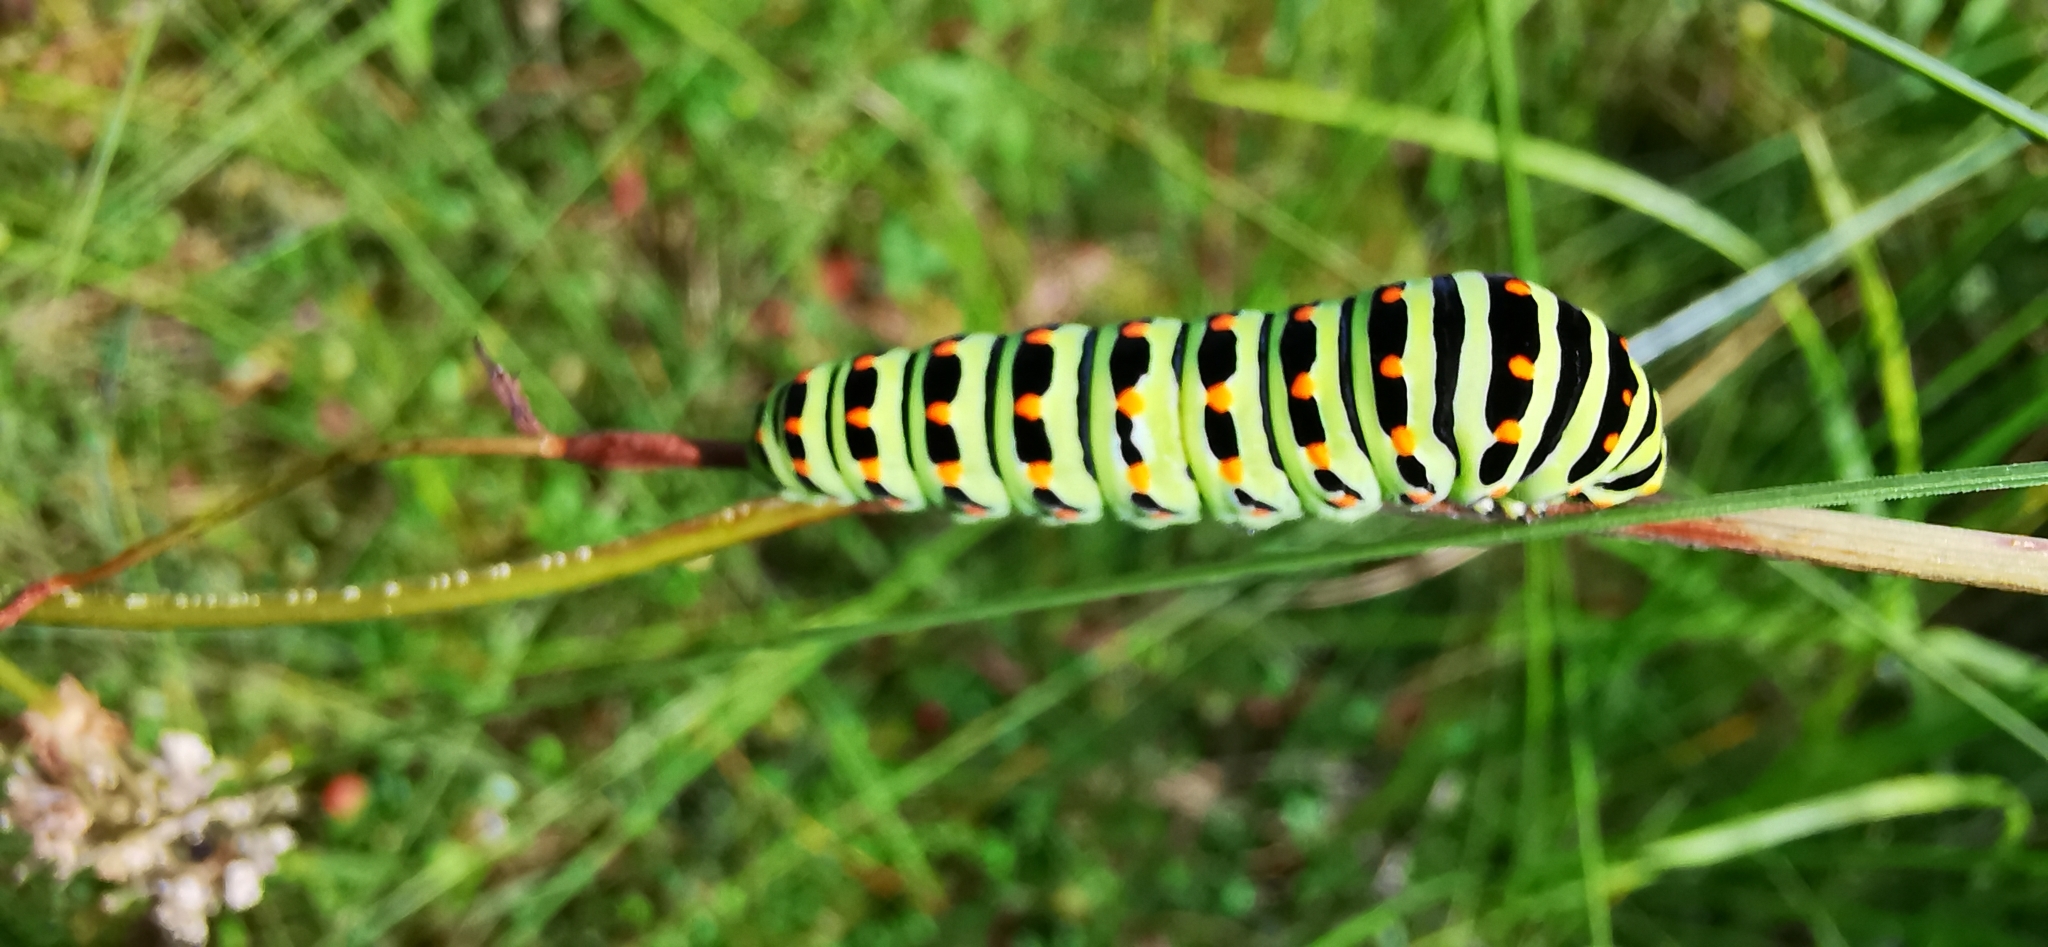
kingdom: Animalia
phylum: Arthropoda
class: Insecta
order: Lepidoptera
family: Papilionidae
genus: Papilio
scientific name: Papilio machaon
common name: Swallowtail
